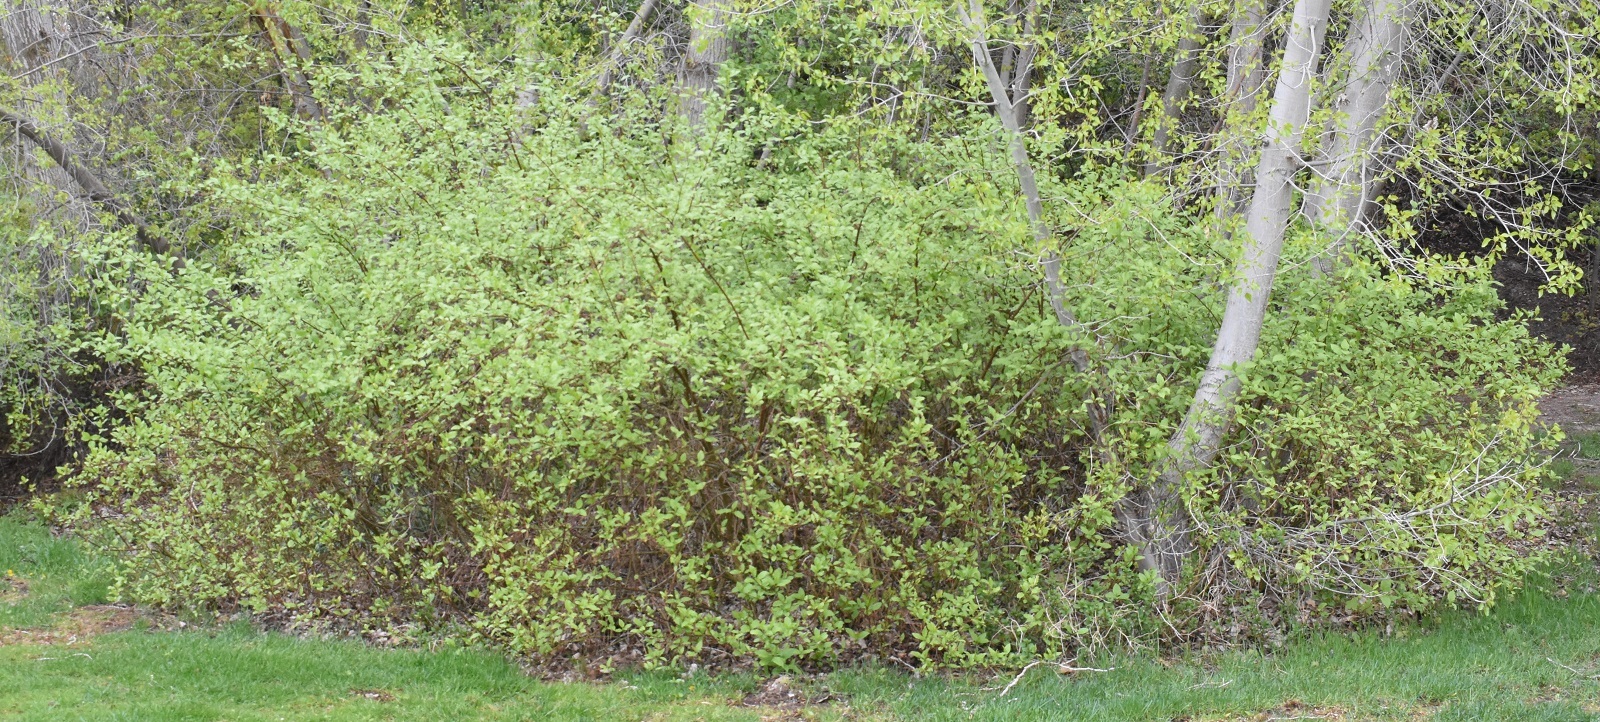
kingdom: Plantae
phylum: Tracheophyta
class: Magnoliopsida
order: Cornales
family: Cornaceae
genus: Cornus
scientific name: Cornus sericea
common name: Red-osier dogwood
